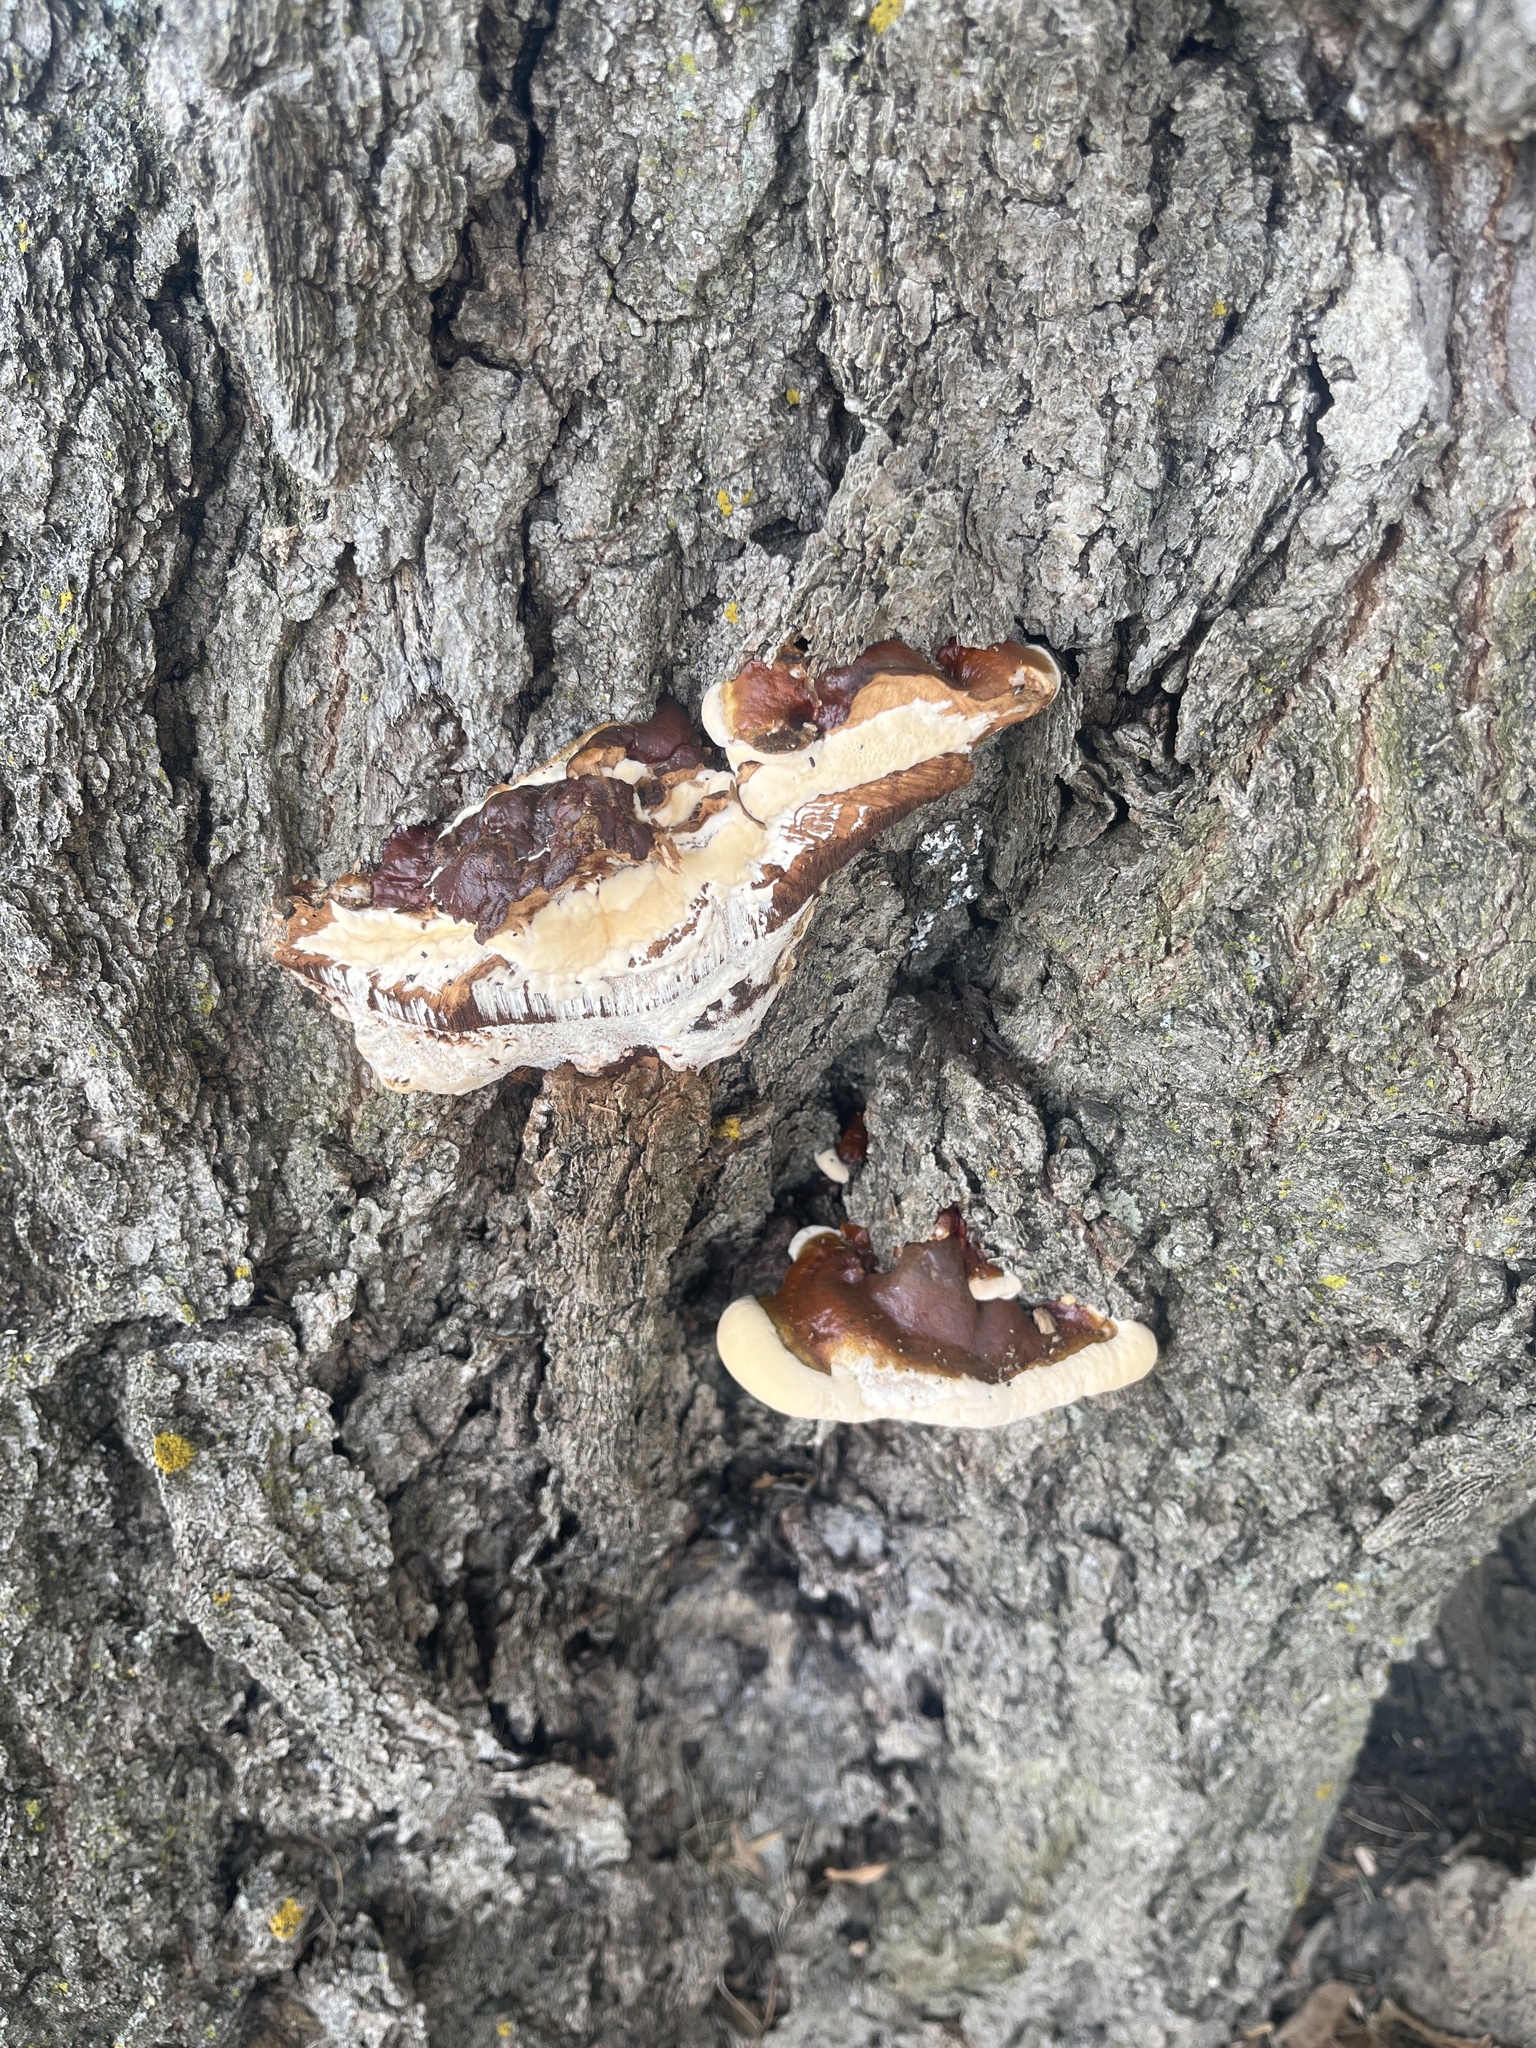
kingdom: Fungi
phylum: Basidiomycota
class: Agaricomycetes
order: Polyporales
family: Polyporaceae
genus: Ganoderma
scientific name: Ganoderma resinaceum
